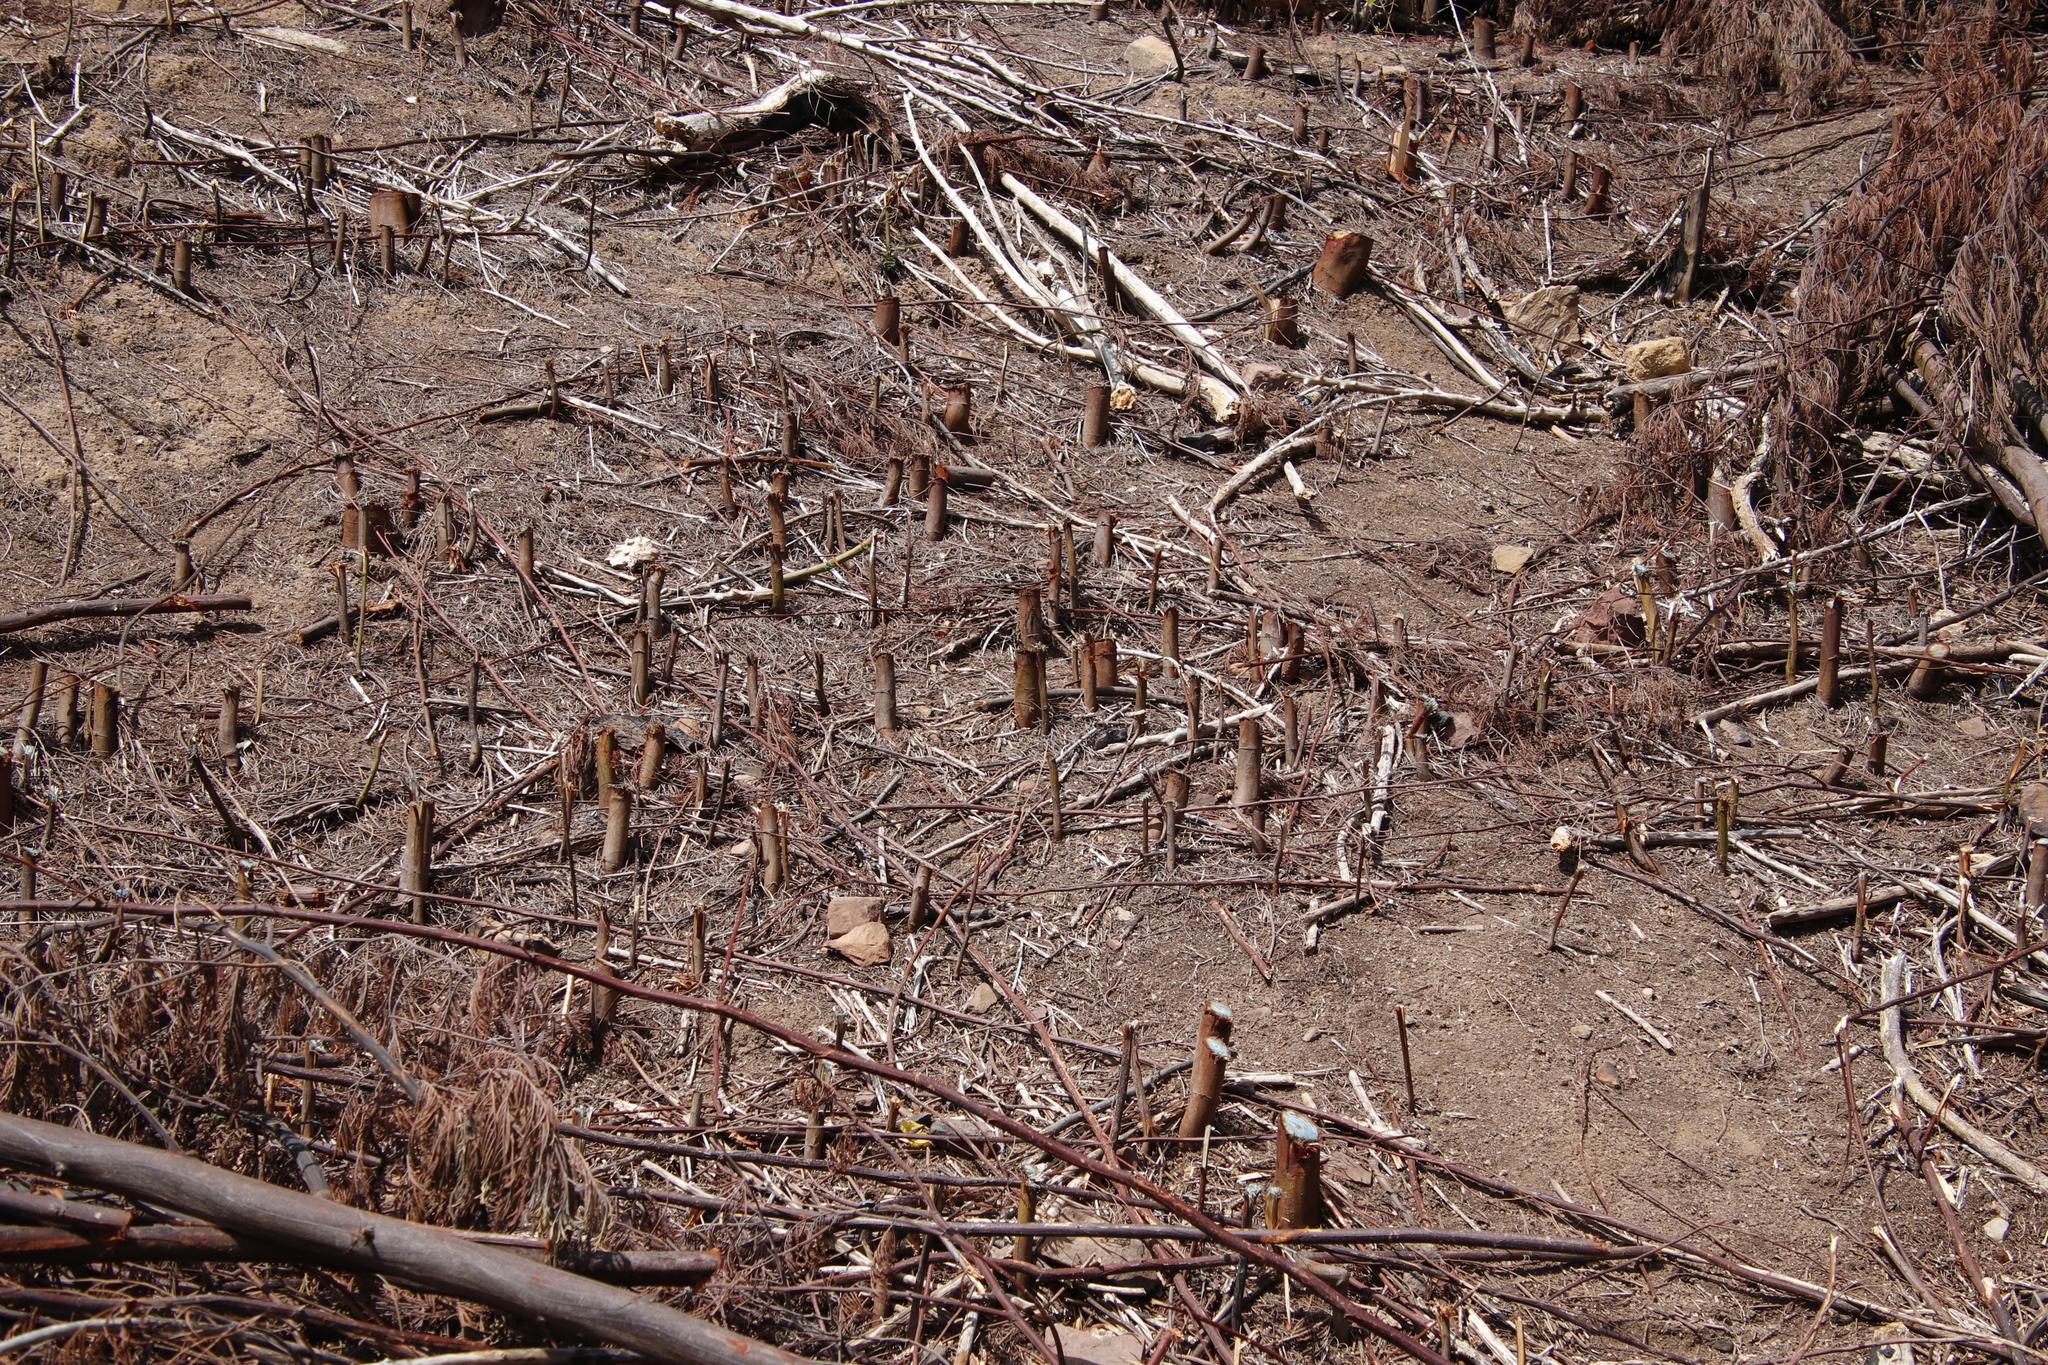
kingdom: Plantae
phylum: Tracheophyta
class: Magnoliopsida
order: Fabales
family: Fabaceae
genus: Acacia
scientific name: Acacia mearnsii
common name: Black wattle
